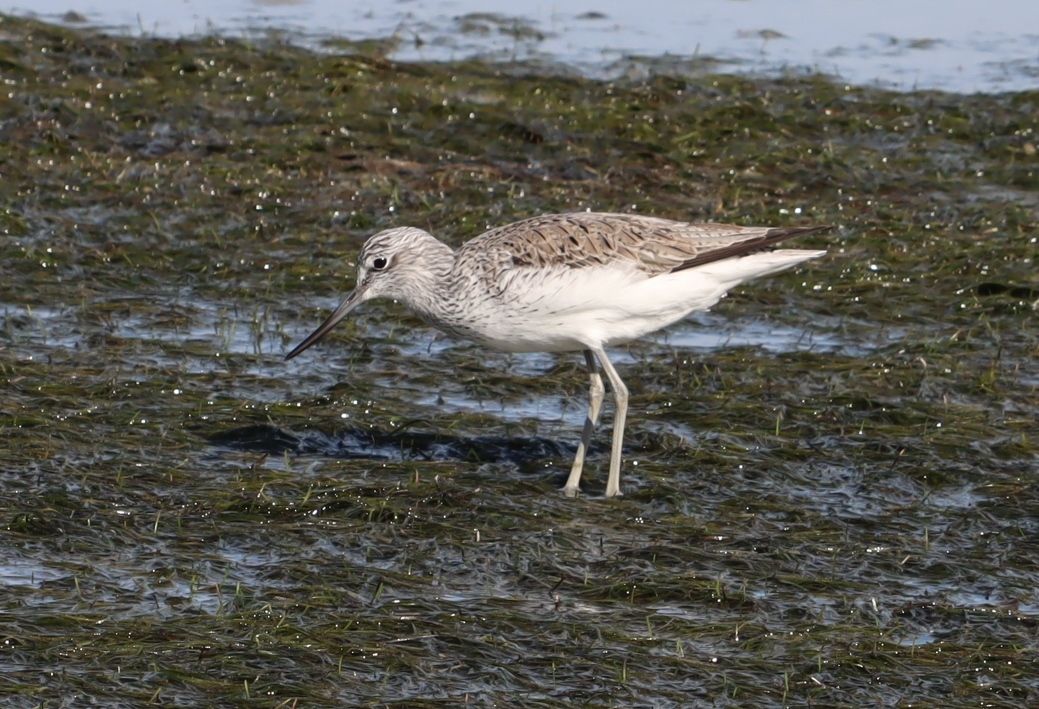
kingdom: Animalia
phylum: Chordata
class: Aves
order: Charadriiformes
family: Scolopacidae
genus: Tringa
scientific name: Tringa nebularia
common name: Common greenshank
